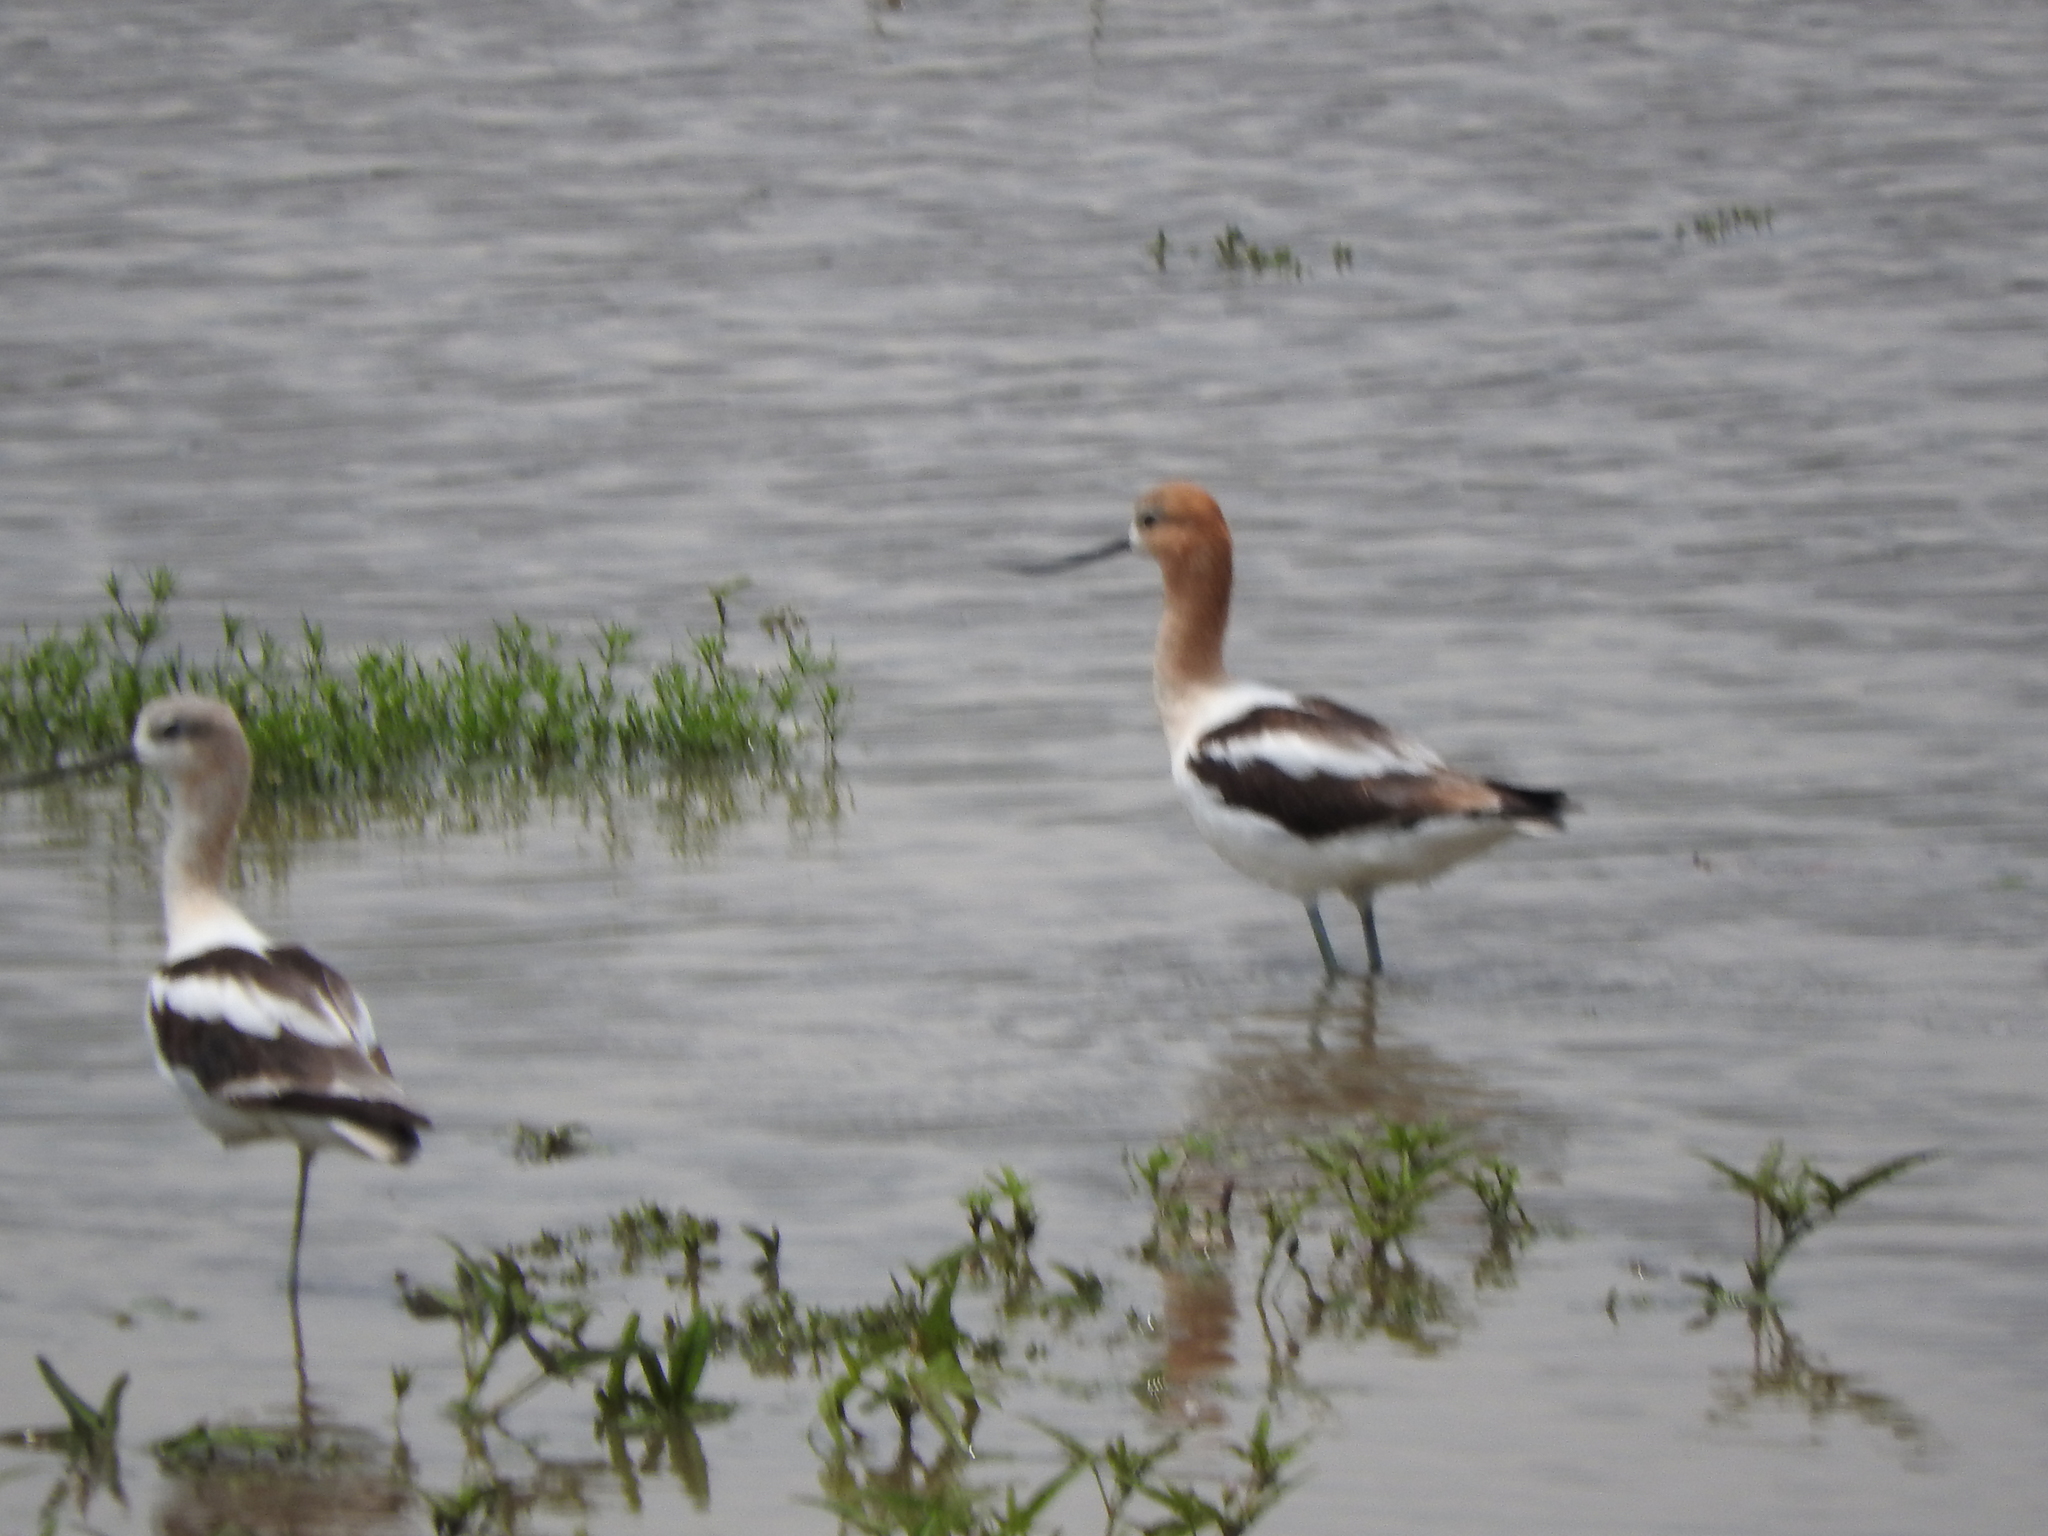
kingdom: Animalia
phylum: Chordata
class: Aves
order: Charadriiformes
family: Recurvirostridae
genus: Recurvirostra
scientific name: Recurvirostra americana
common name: American avocet
